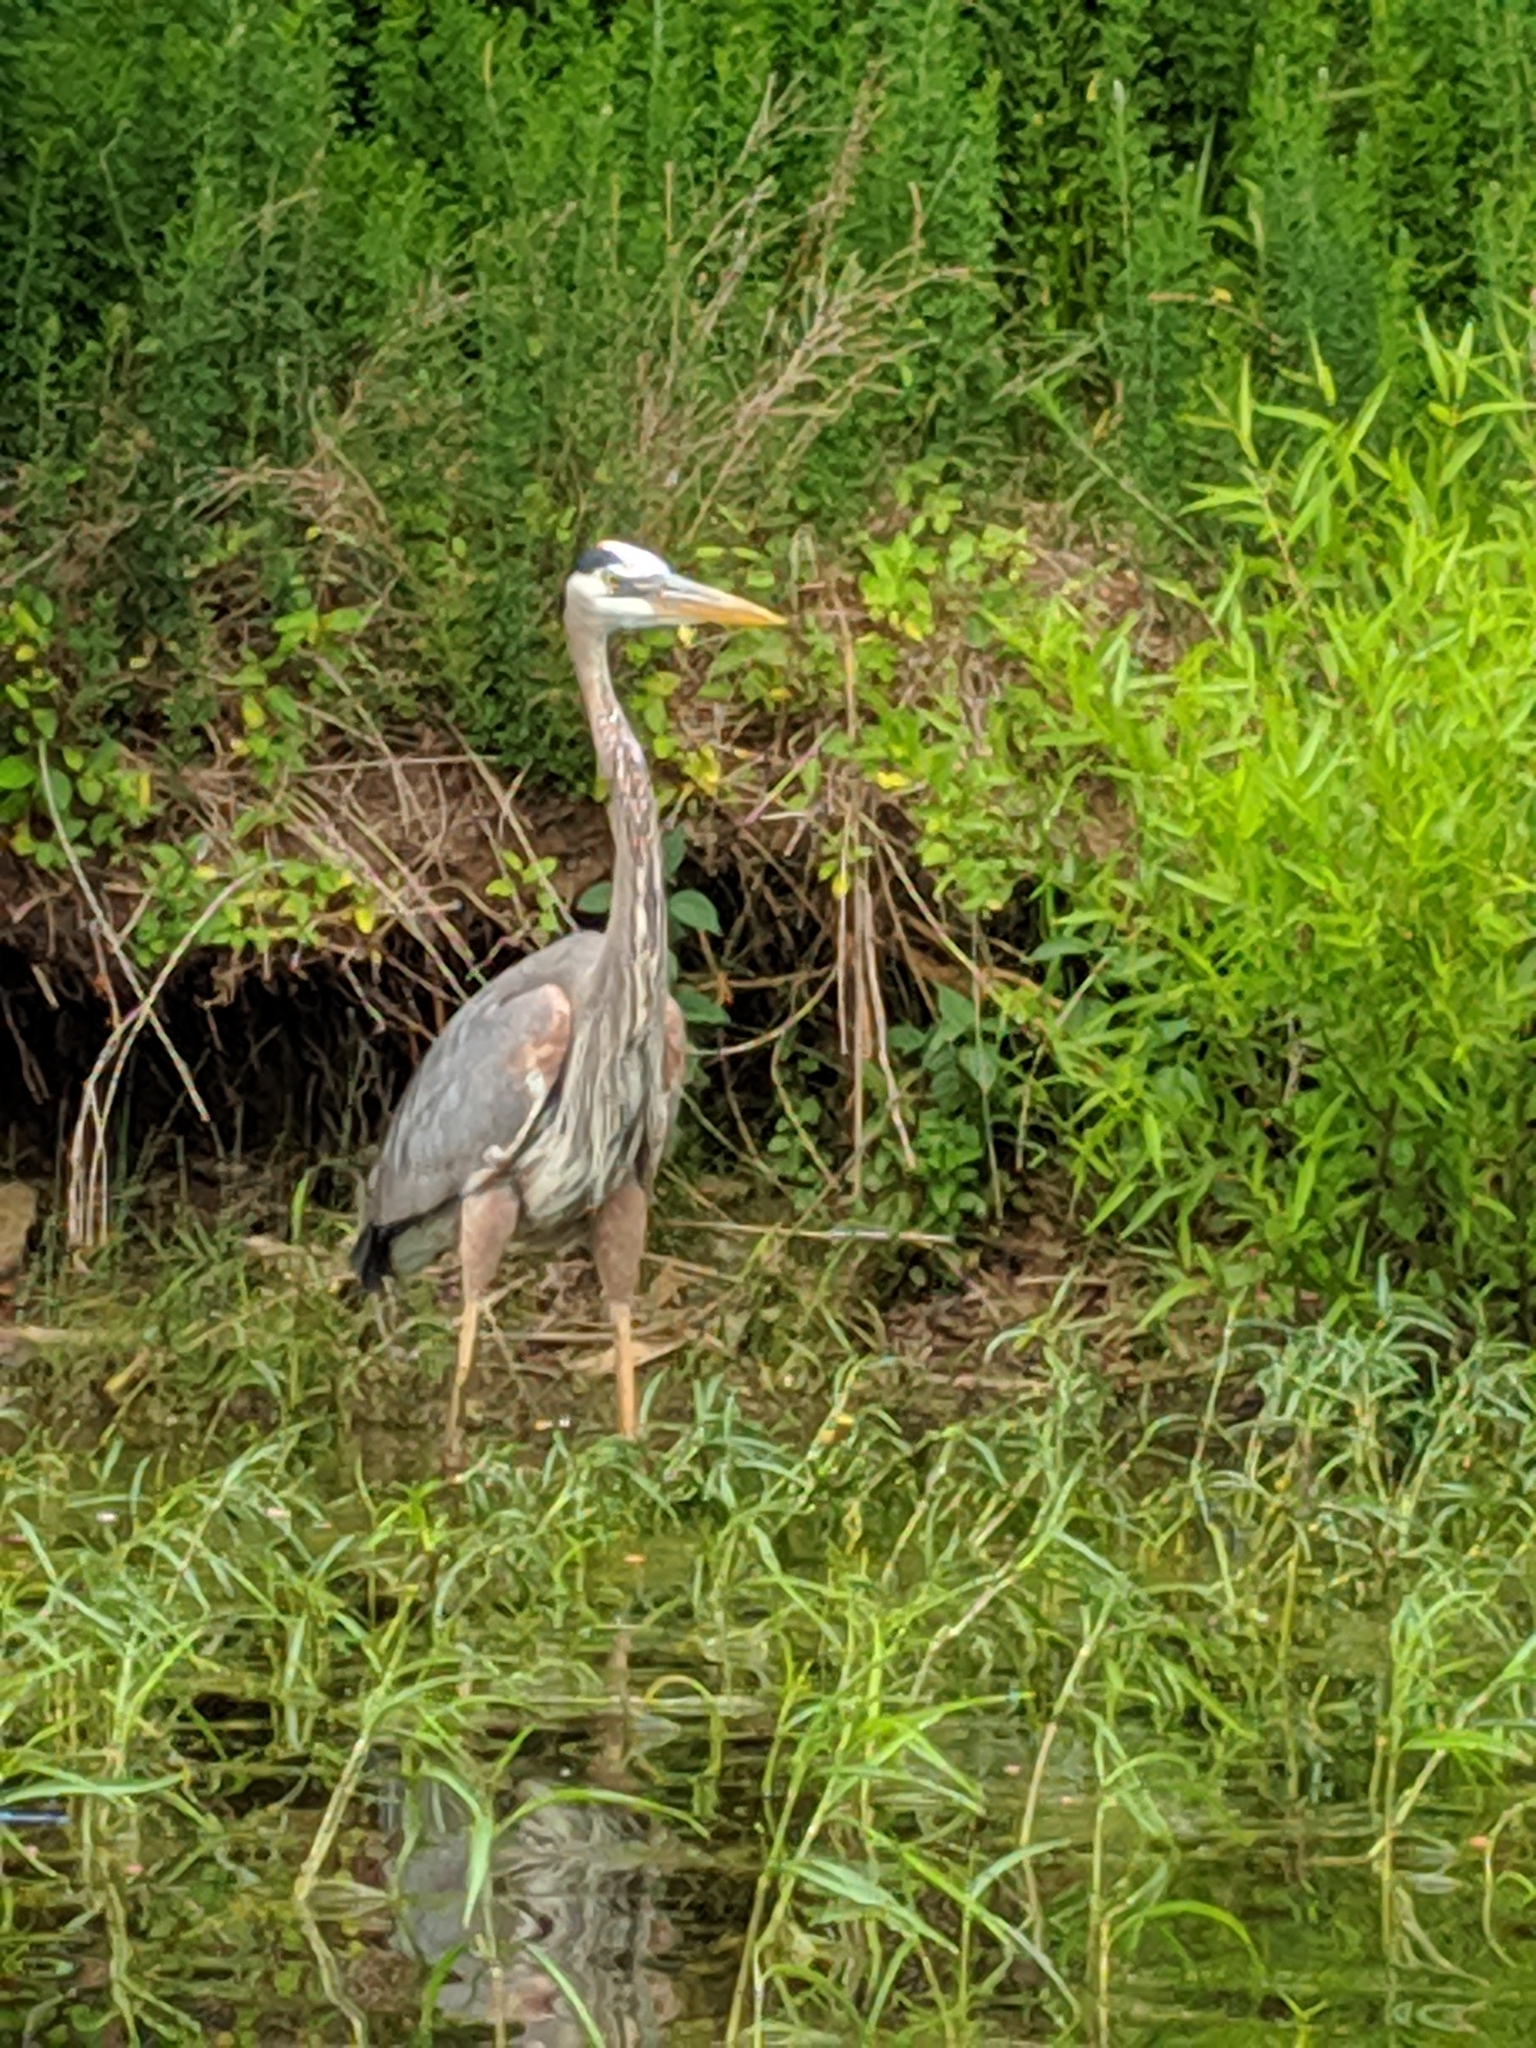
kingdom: Animalia
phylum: Chordata
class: Aves
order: Pelecaniformes
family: Ardeidae
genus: Ardea
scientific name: Ardea herodias
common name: Great blue heron
